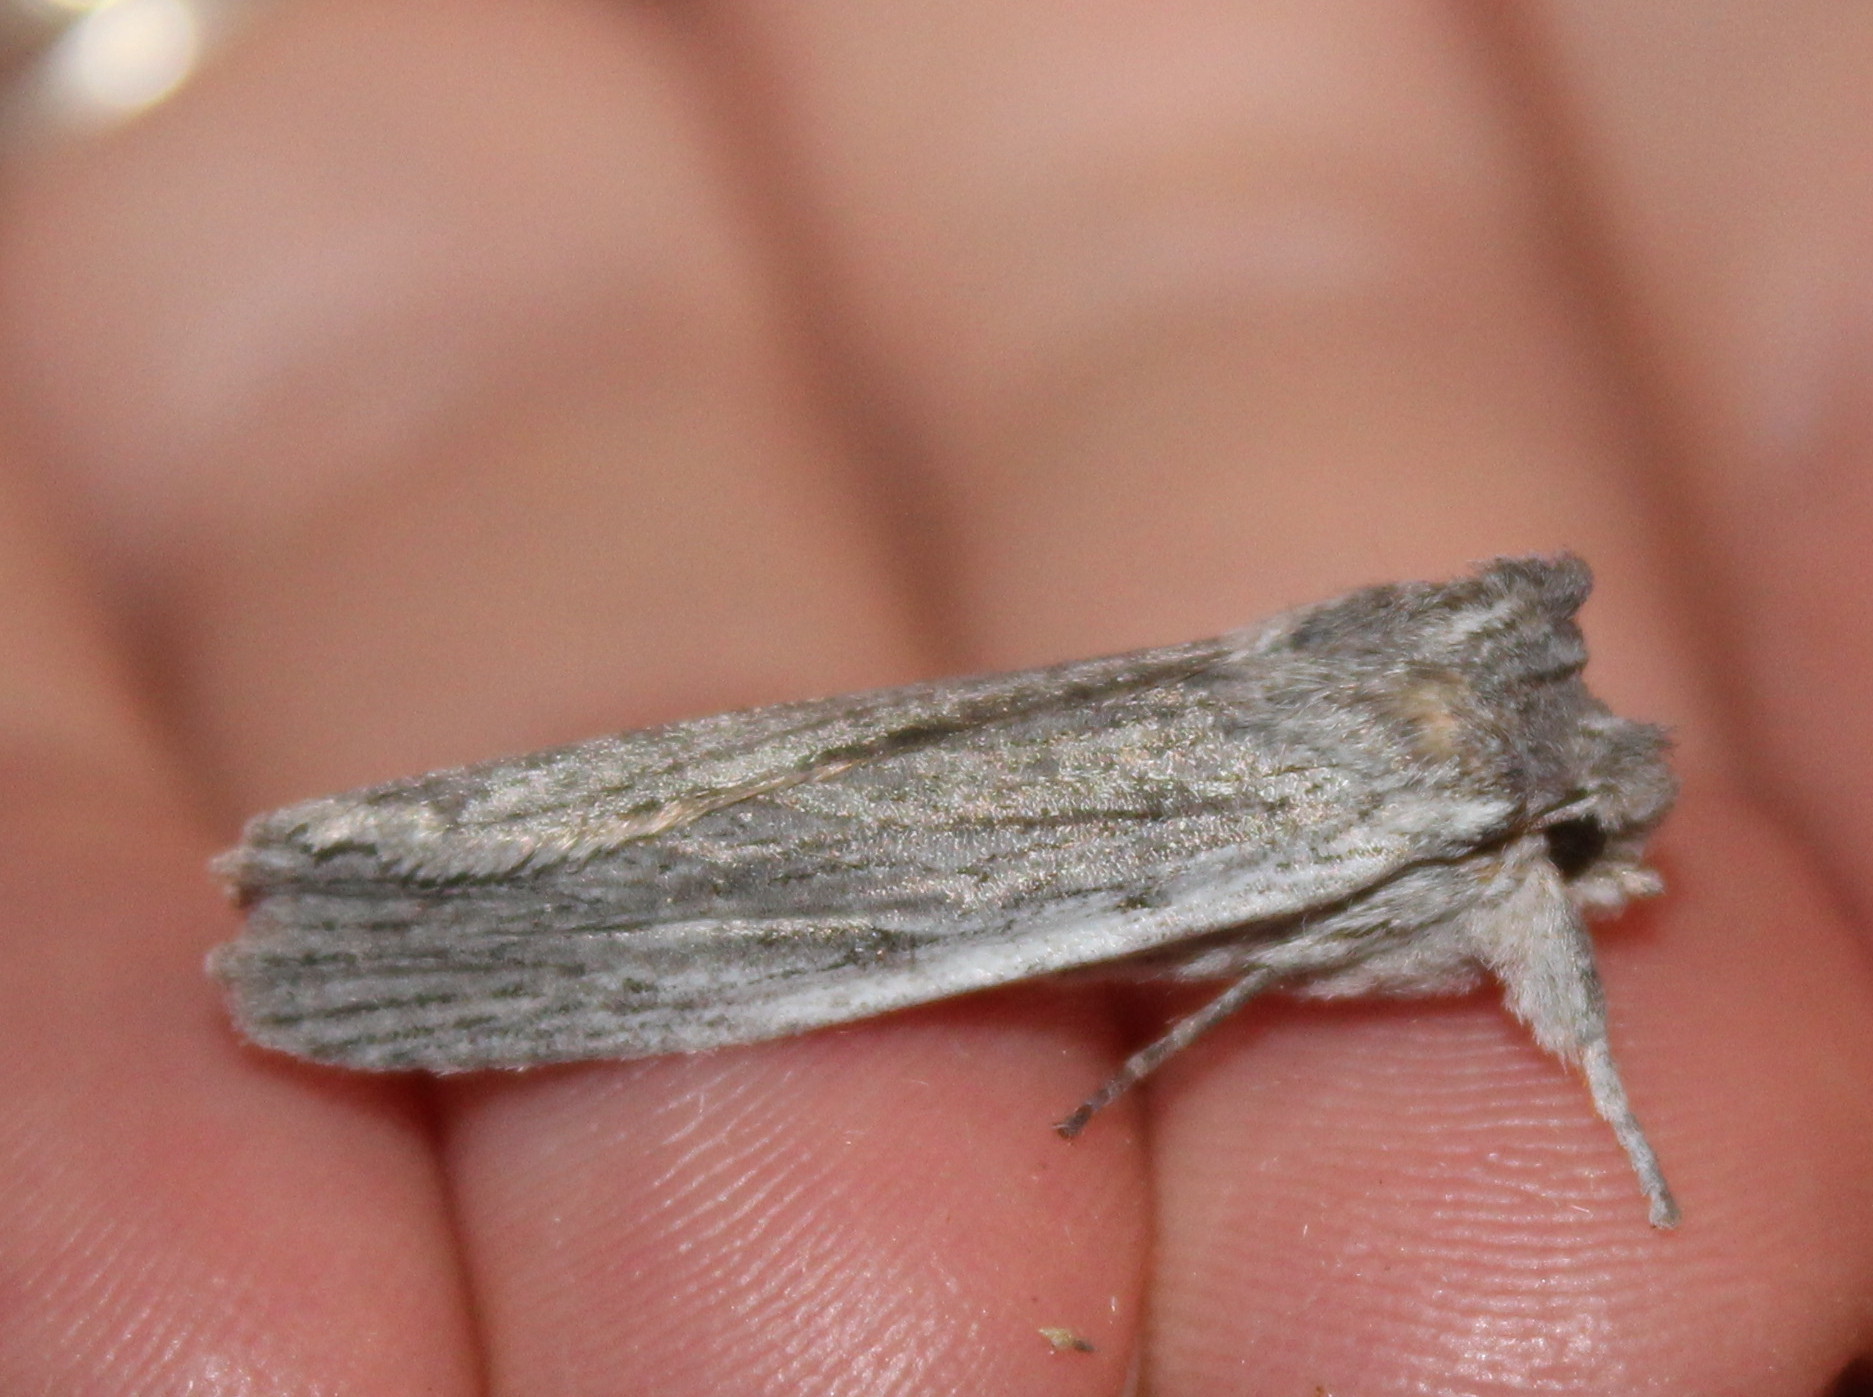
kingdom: Animalia
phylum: Arthropoda
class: Insecta
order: Lepidoptera
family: Noctuidae
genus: Lithophane
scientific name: Lithophane fagina
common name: Hoary pinion moth
